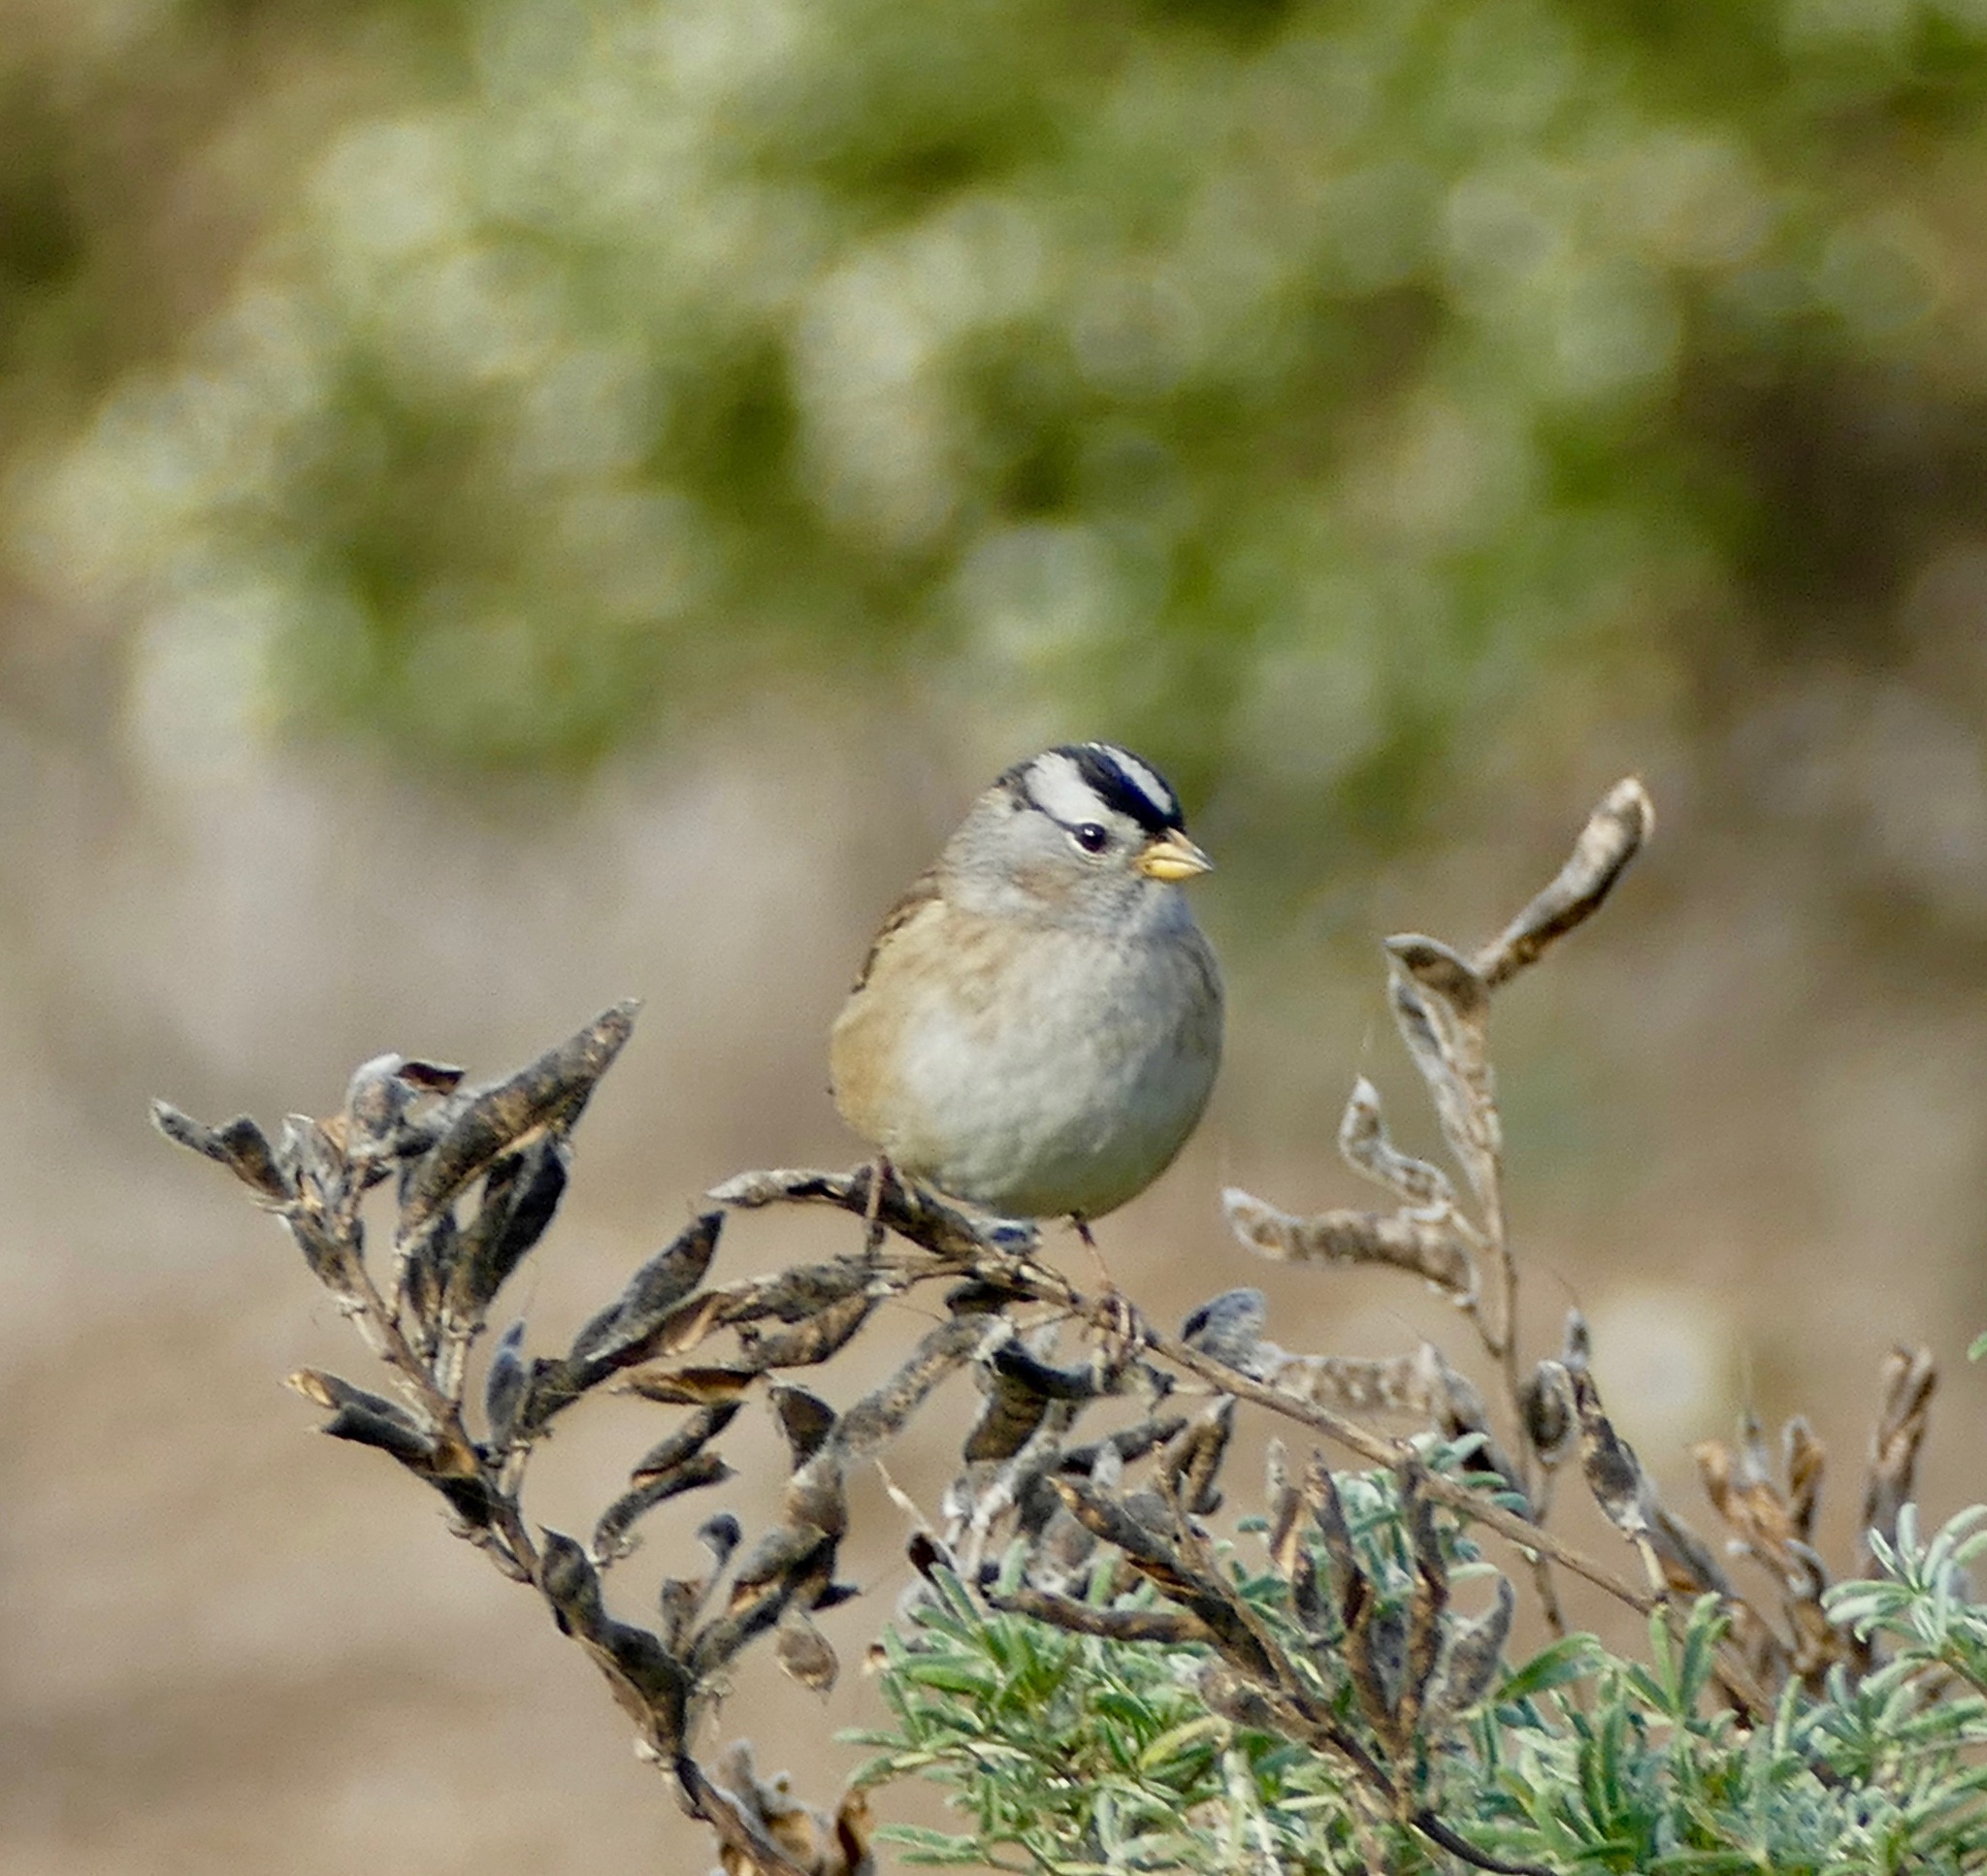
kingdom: Animalia
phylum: Chordata
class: Aves
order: Passeriformes
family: Passerellidae
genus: Zonotrichia
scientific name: Zonotrichia leucophrys
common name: White-crowned sparrow
